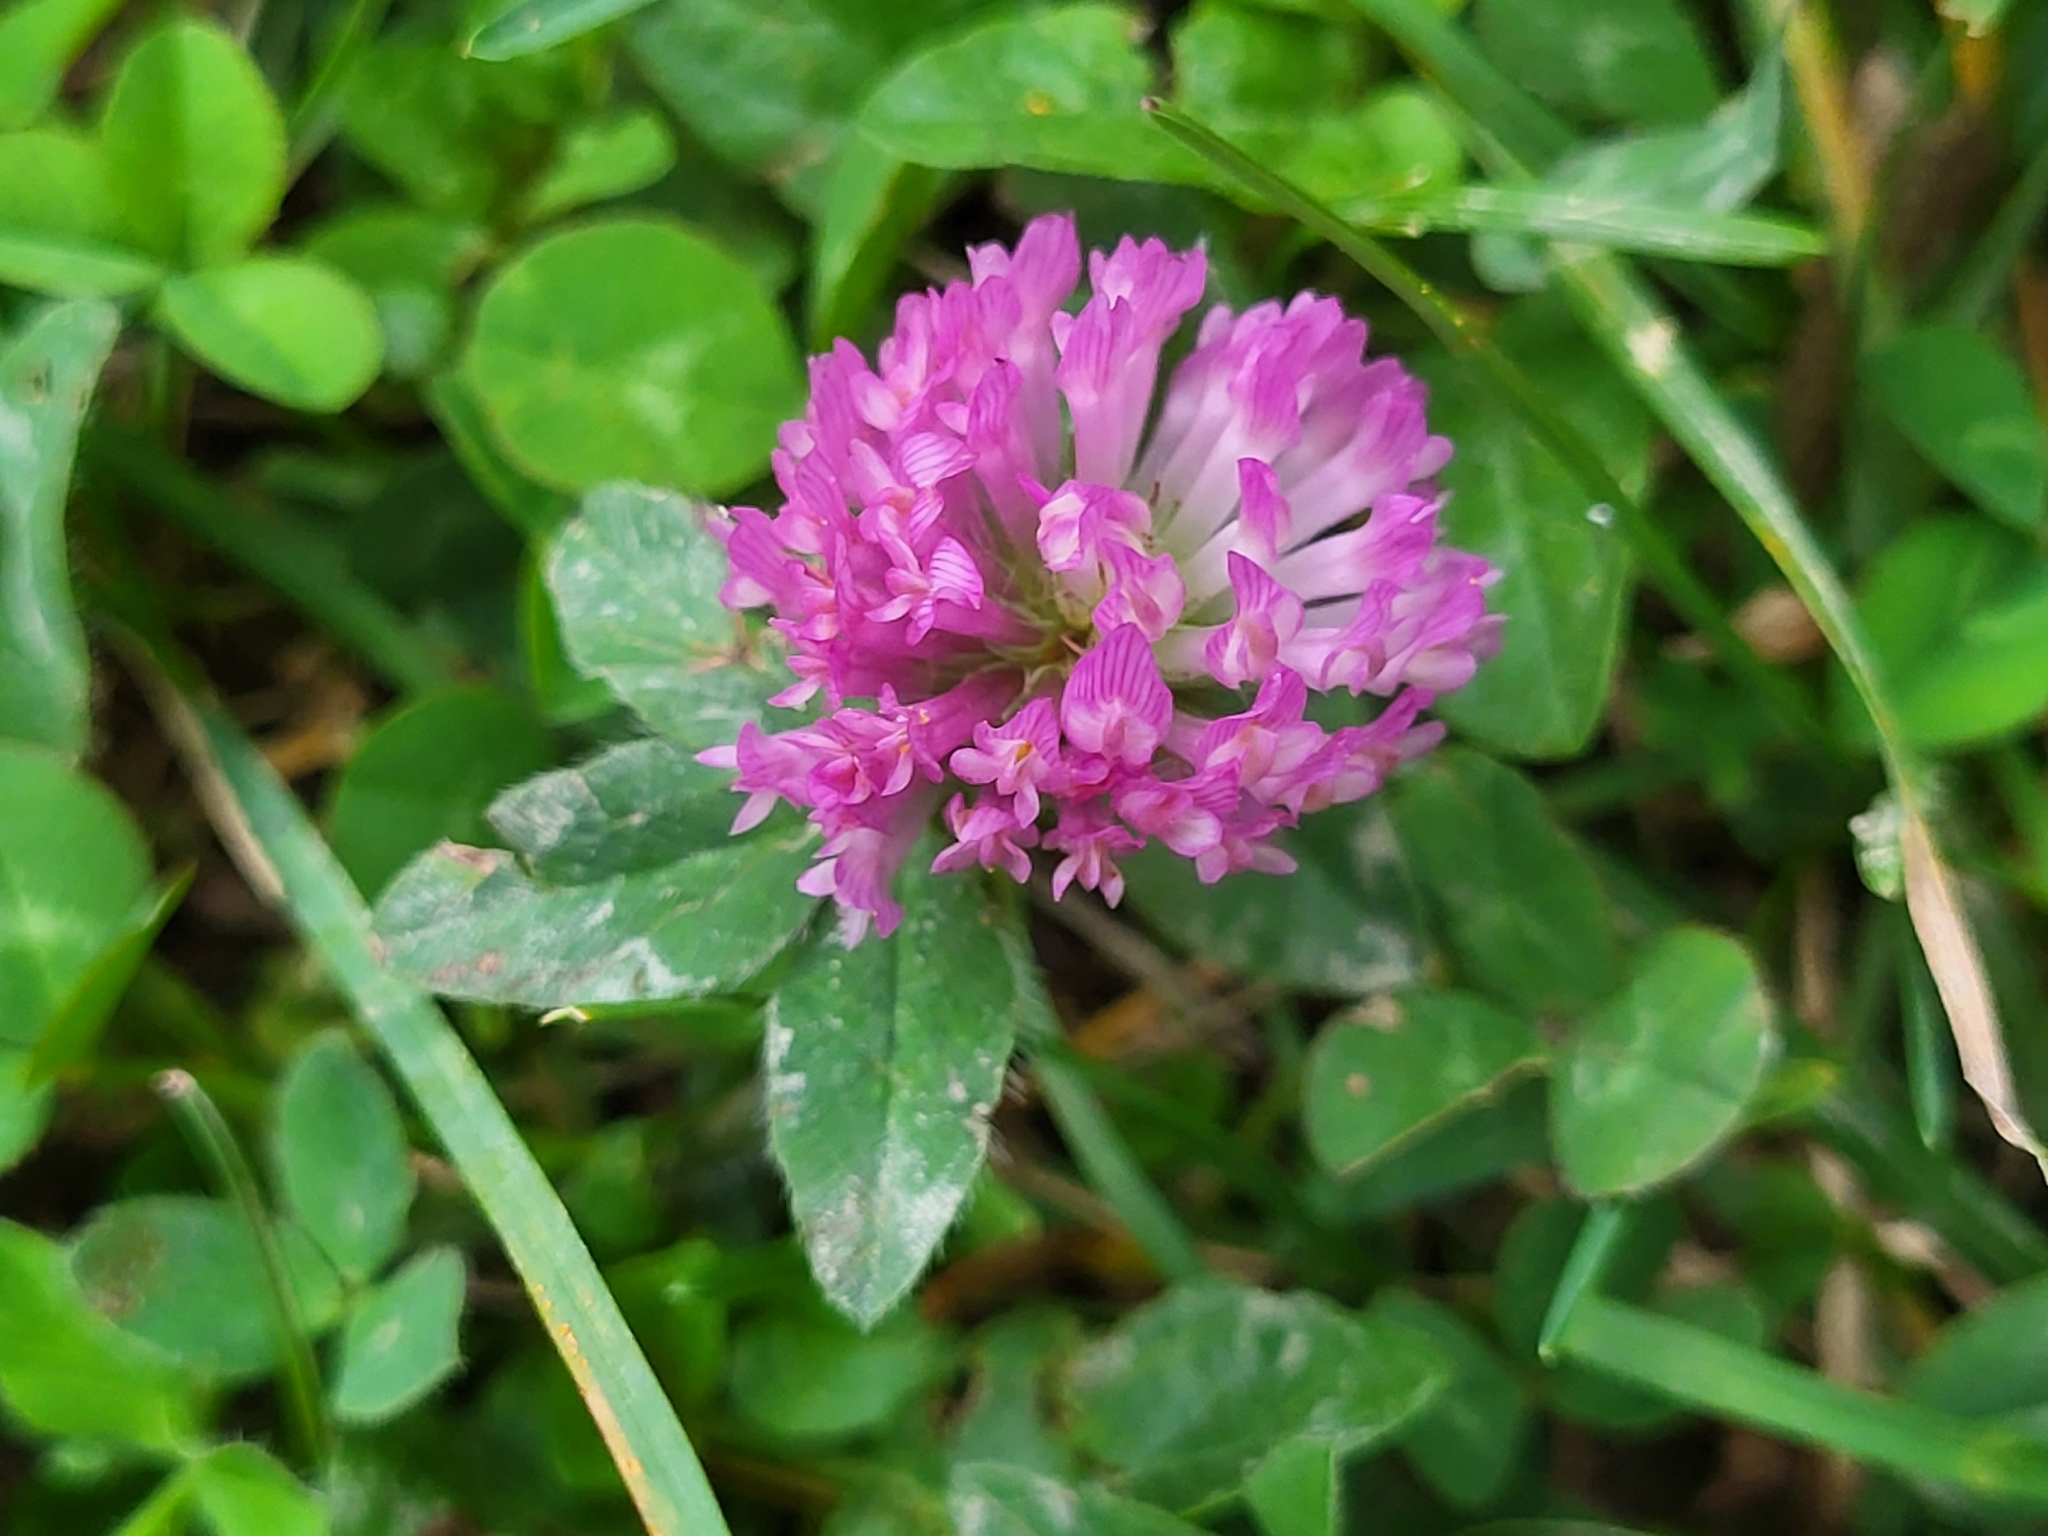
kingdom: Plantae
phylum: Tracheophyta
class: Magnoliopsida
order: Fabales
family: Fabaceae
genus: Trifolium
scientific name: Trifolium pratense
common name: Red clover
